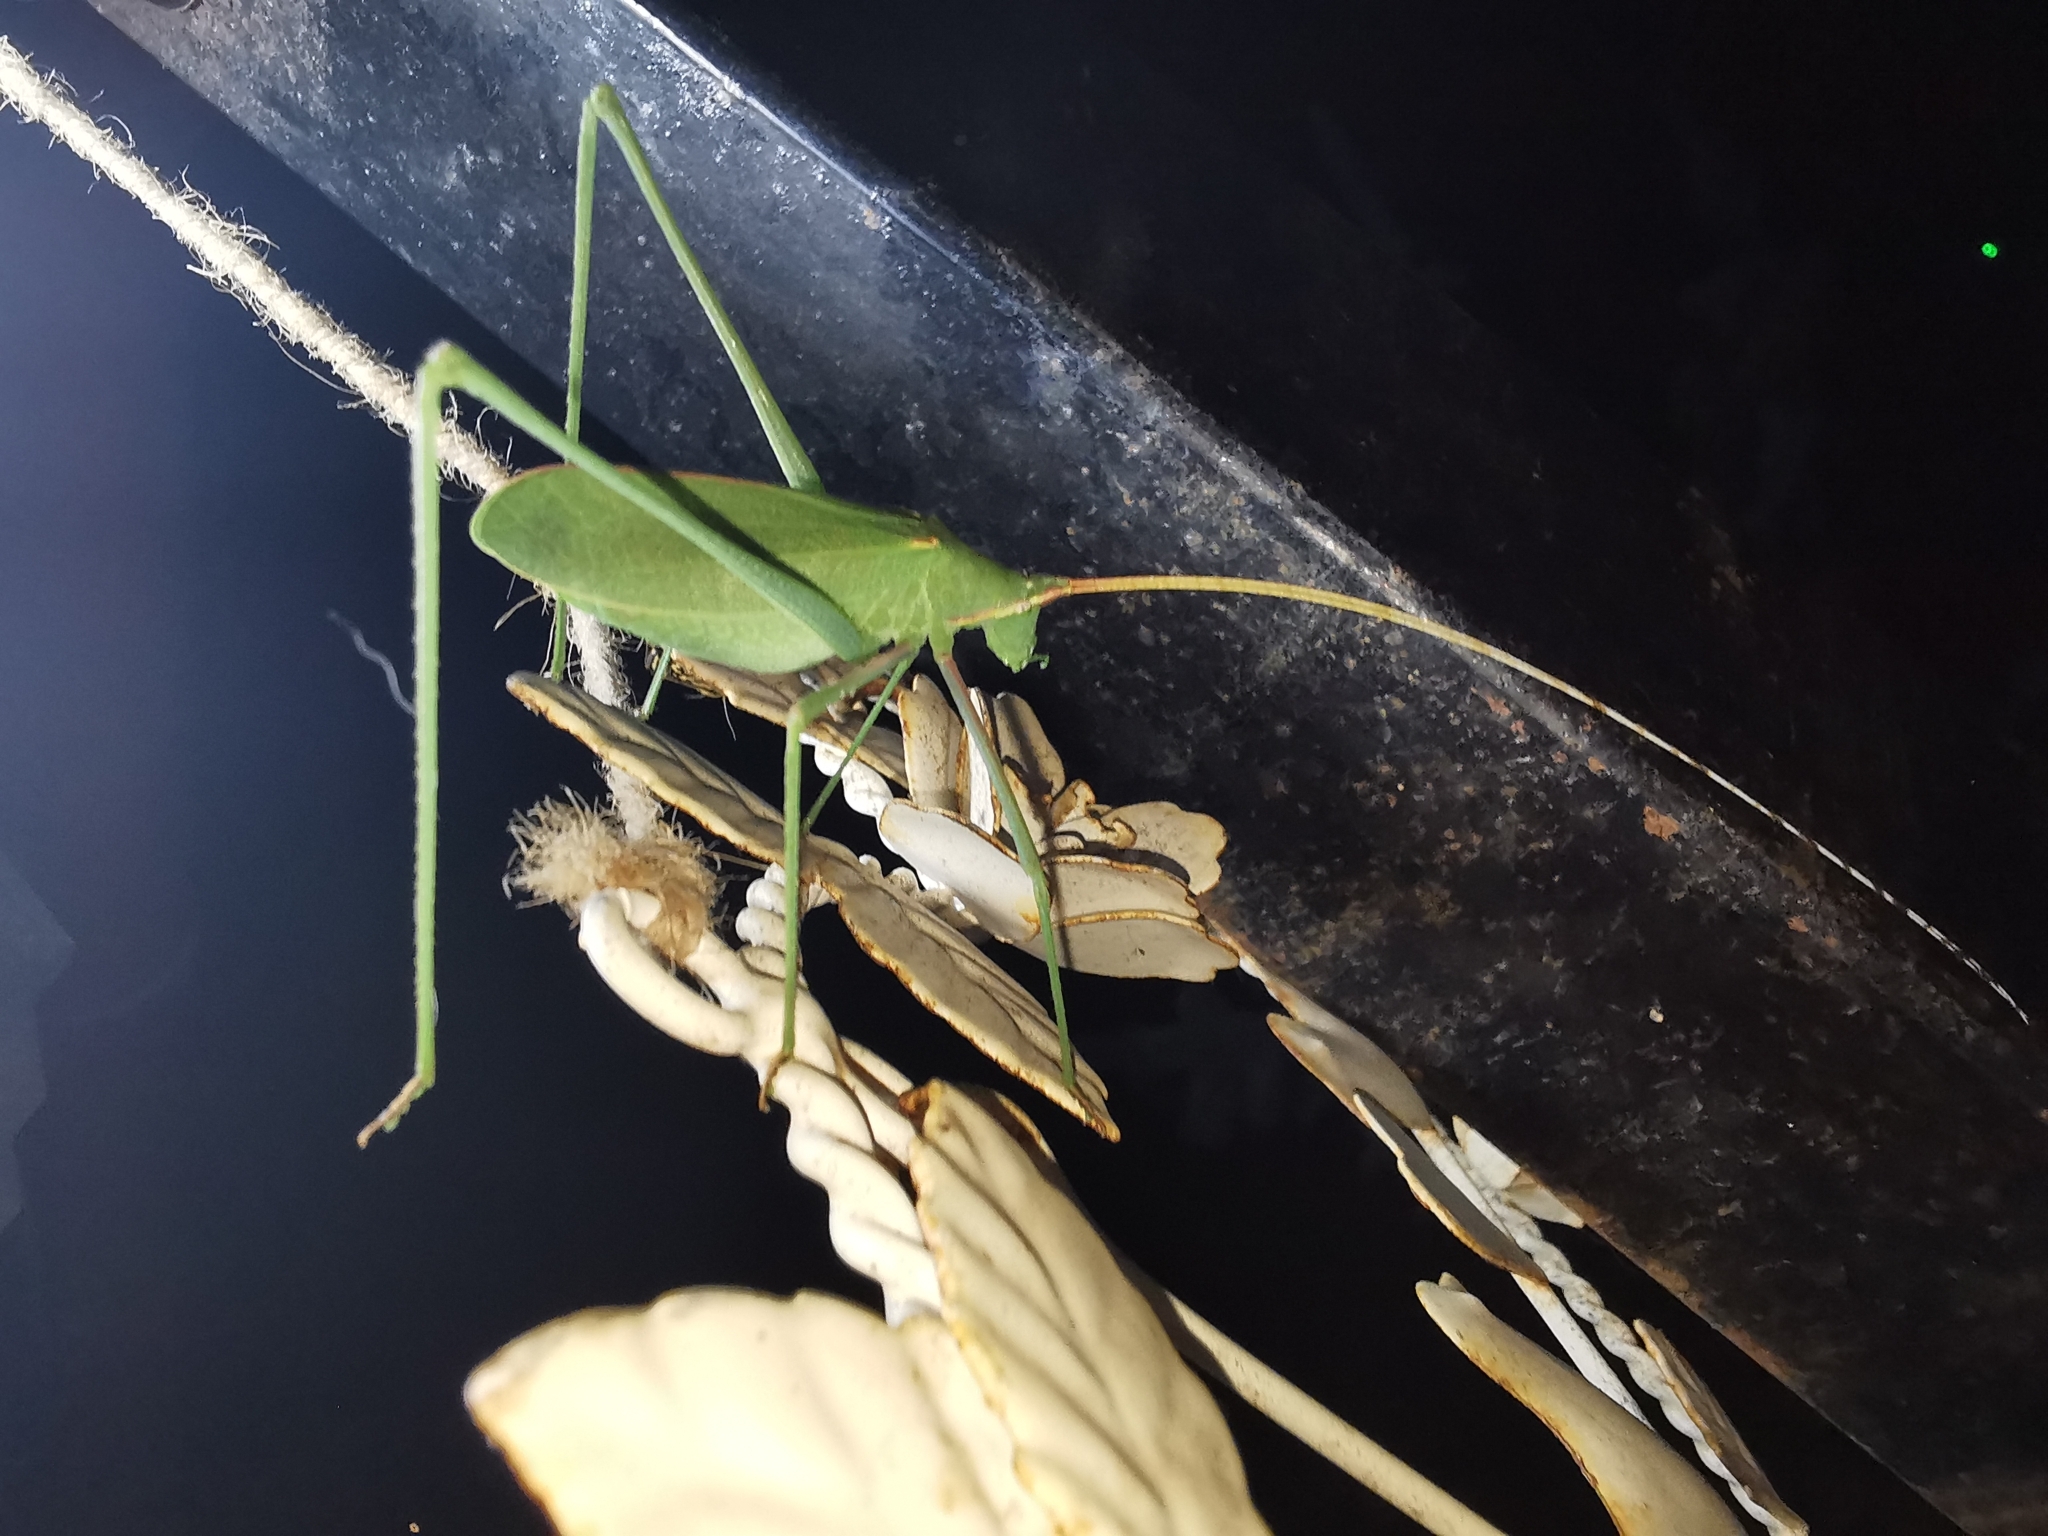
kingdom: Animalia
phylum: Arthropoda
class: Insecta
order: Orthoptera
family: Tettigoniidae
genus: Acrometopa
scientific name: Acrometopa
